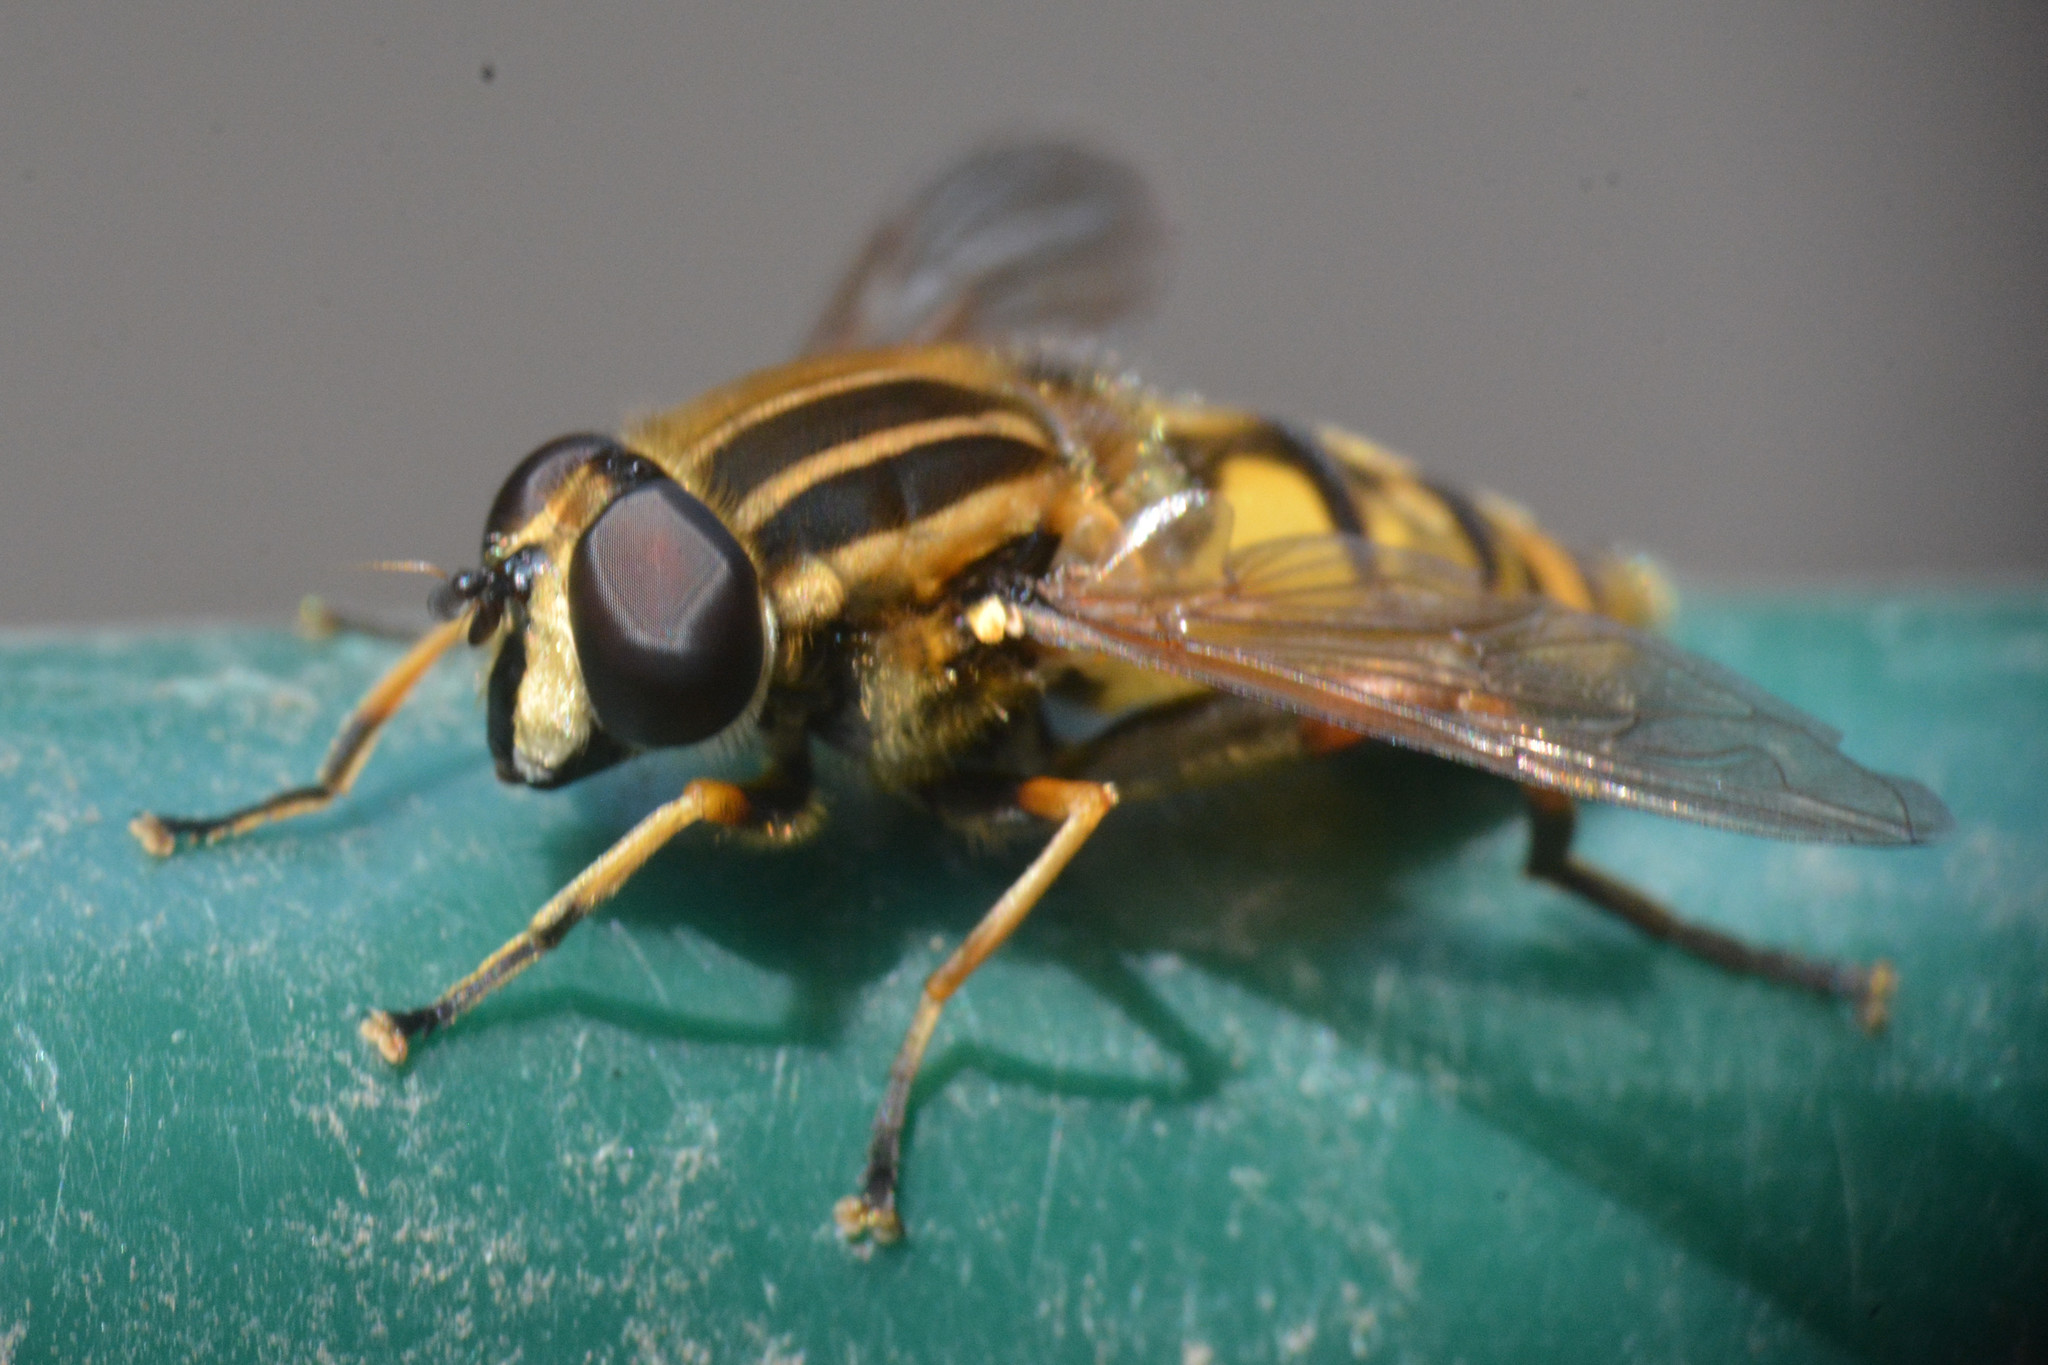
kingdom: Animalia
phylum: Arthropoda
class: Insecta
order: Diptera
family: Syrphidae
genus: Helophilus
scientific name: Helophilus pendulus
